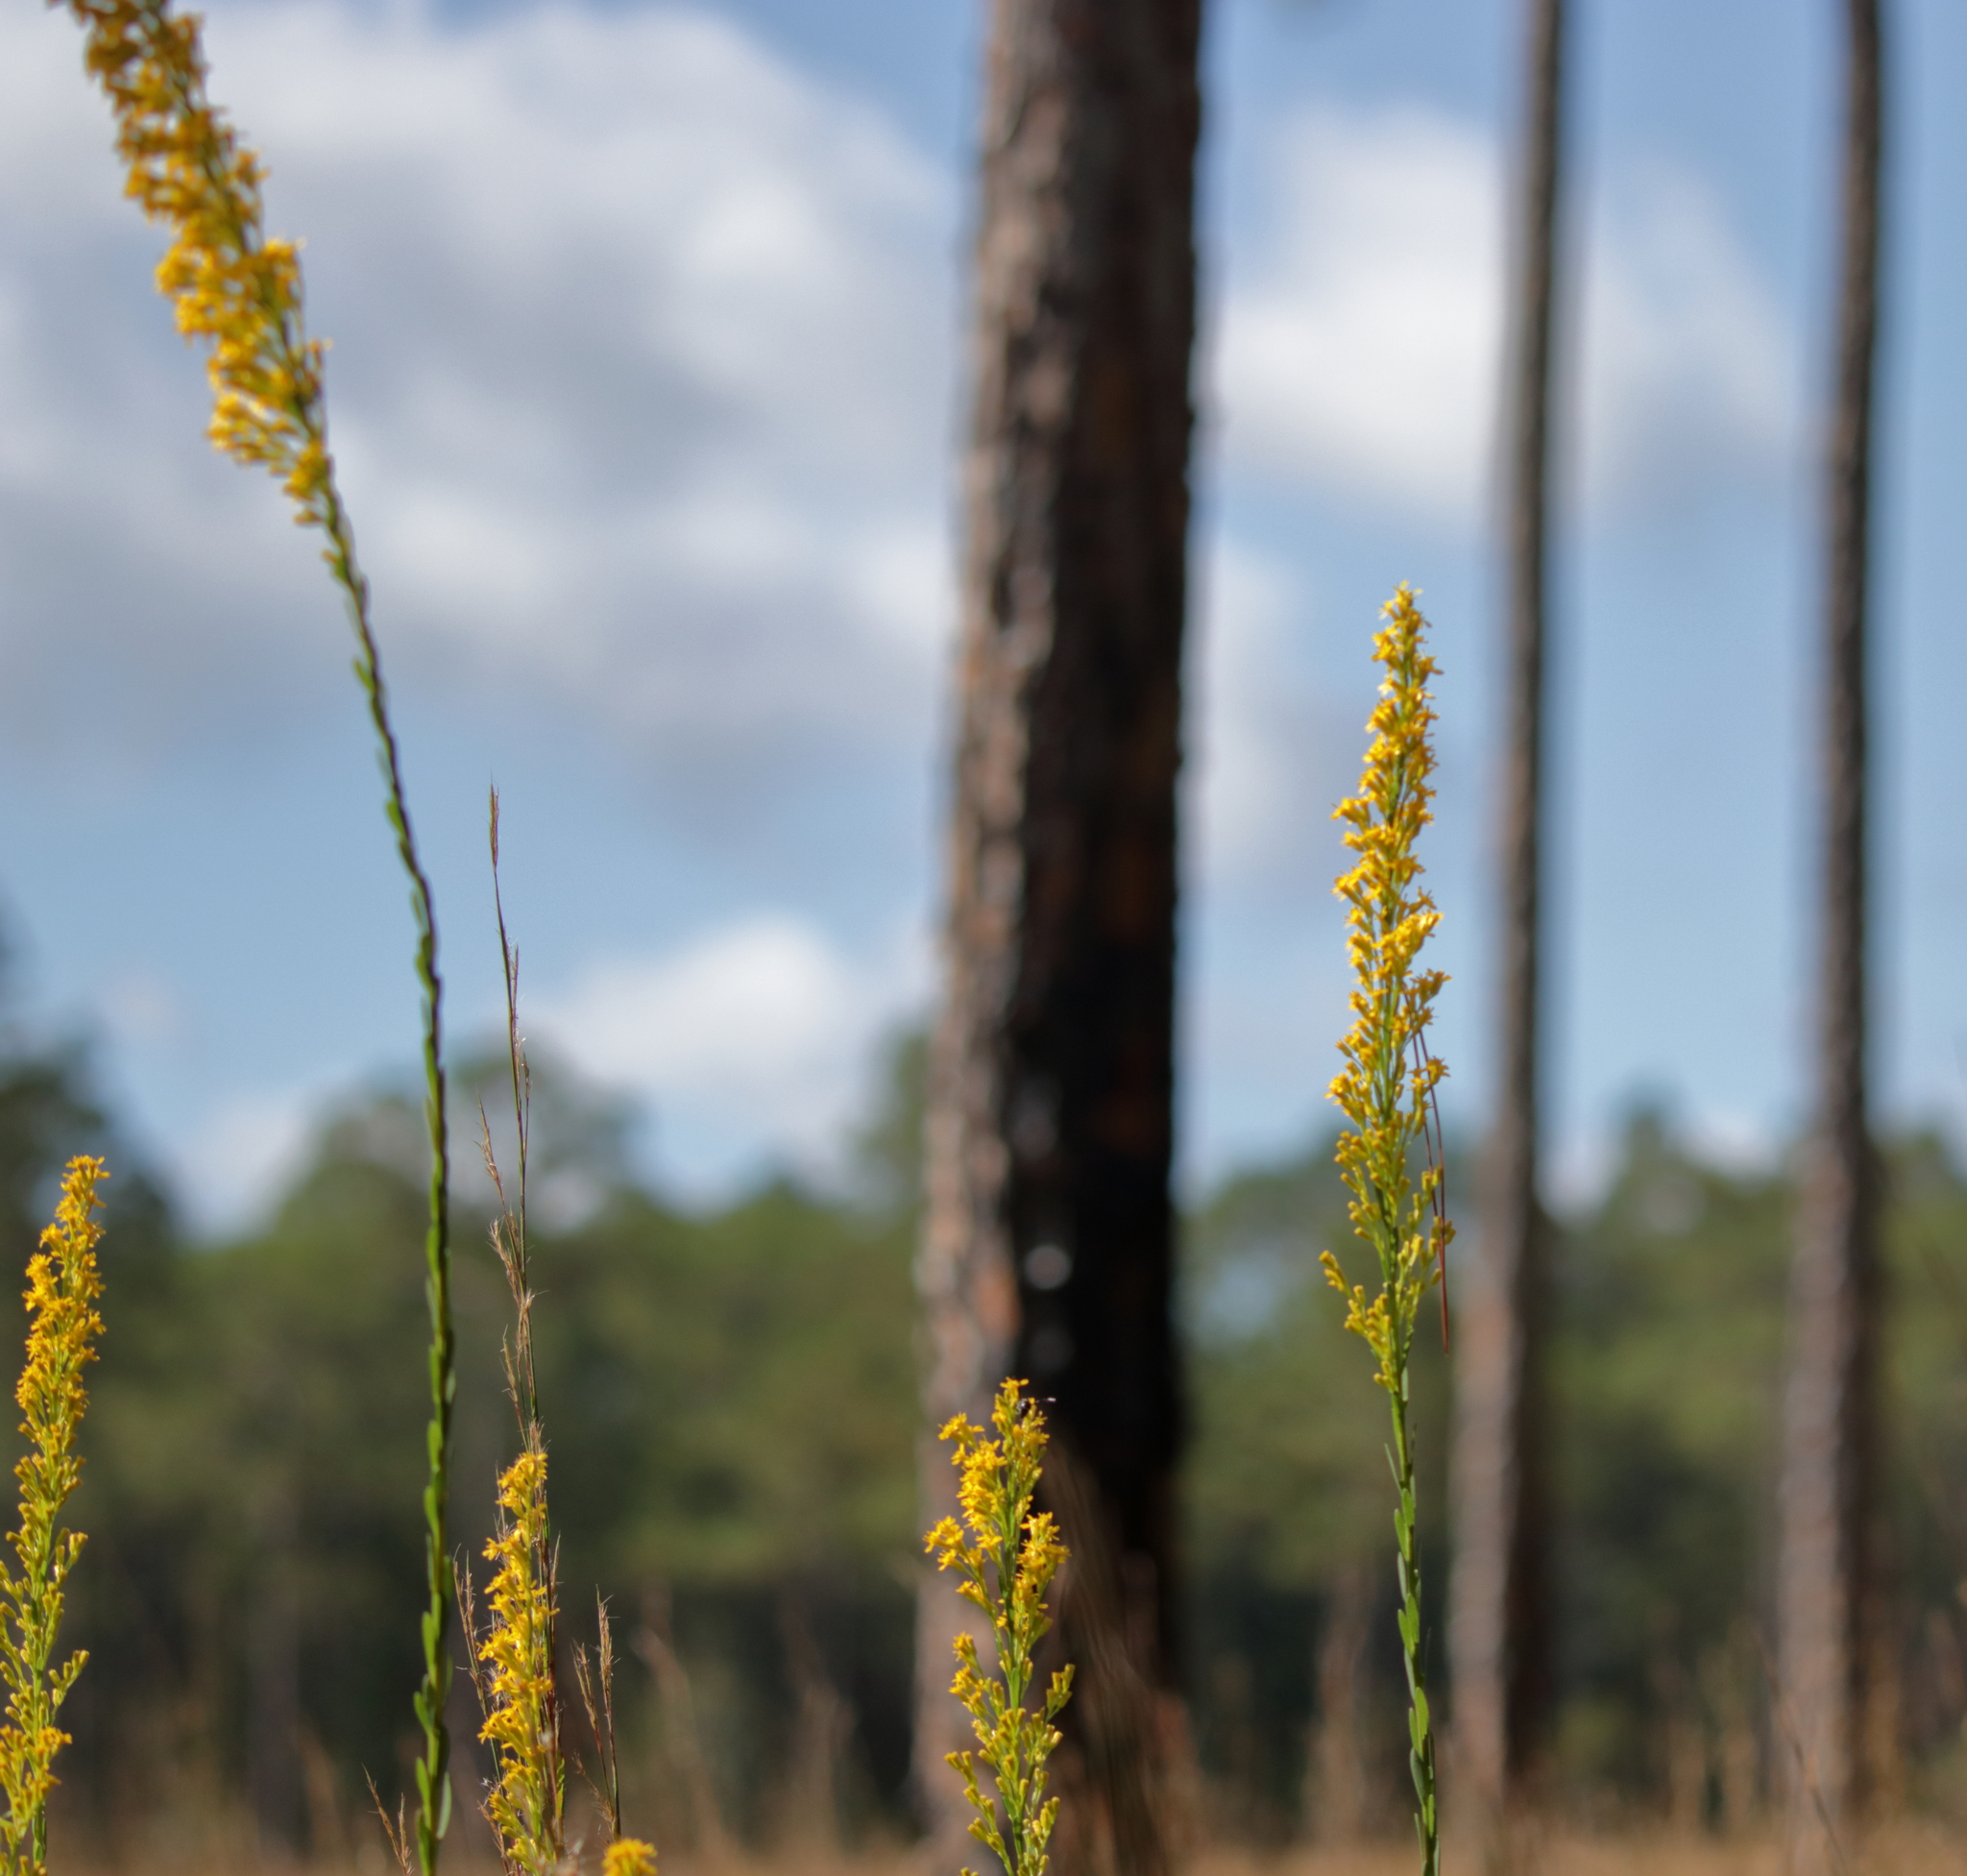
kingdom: Plantae
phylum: Tracheophyta
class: Magnoliopsida
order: Asterales
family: Asteraceae
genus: Solidago
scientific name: Solidago virgata
